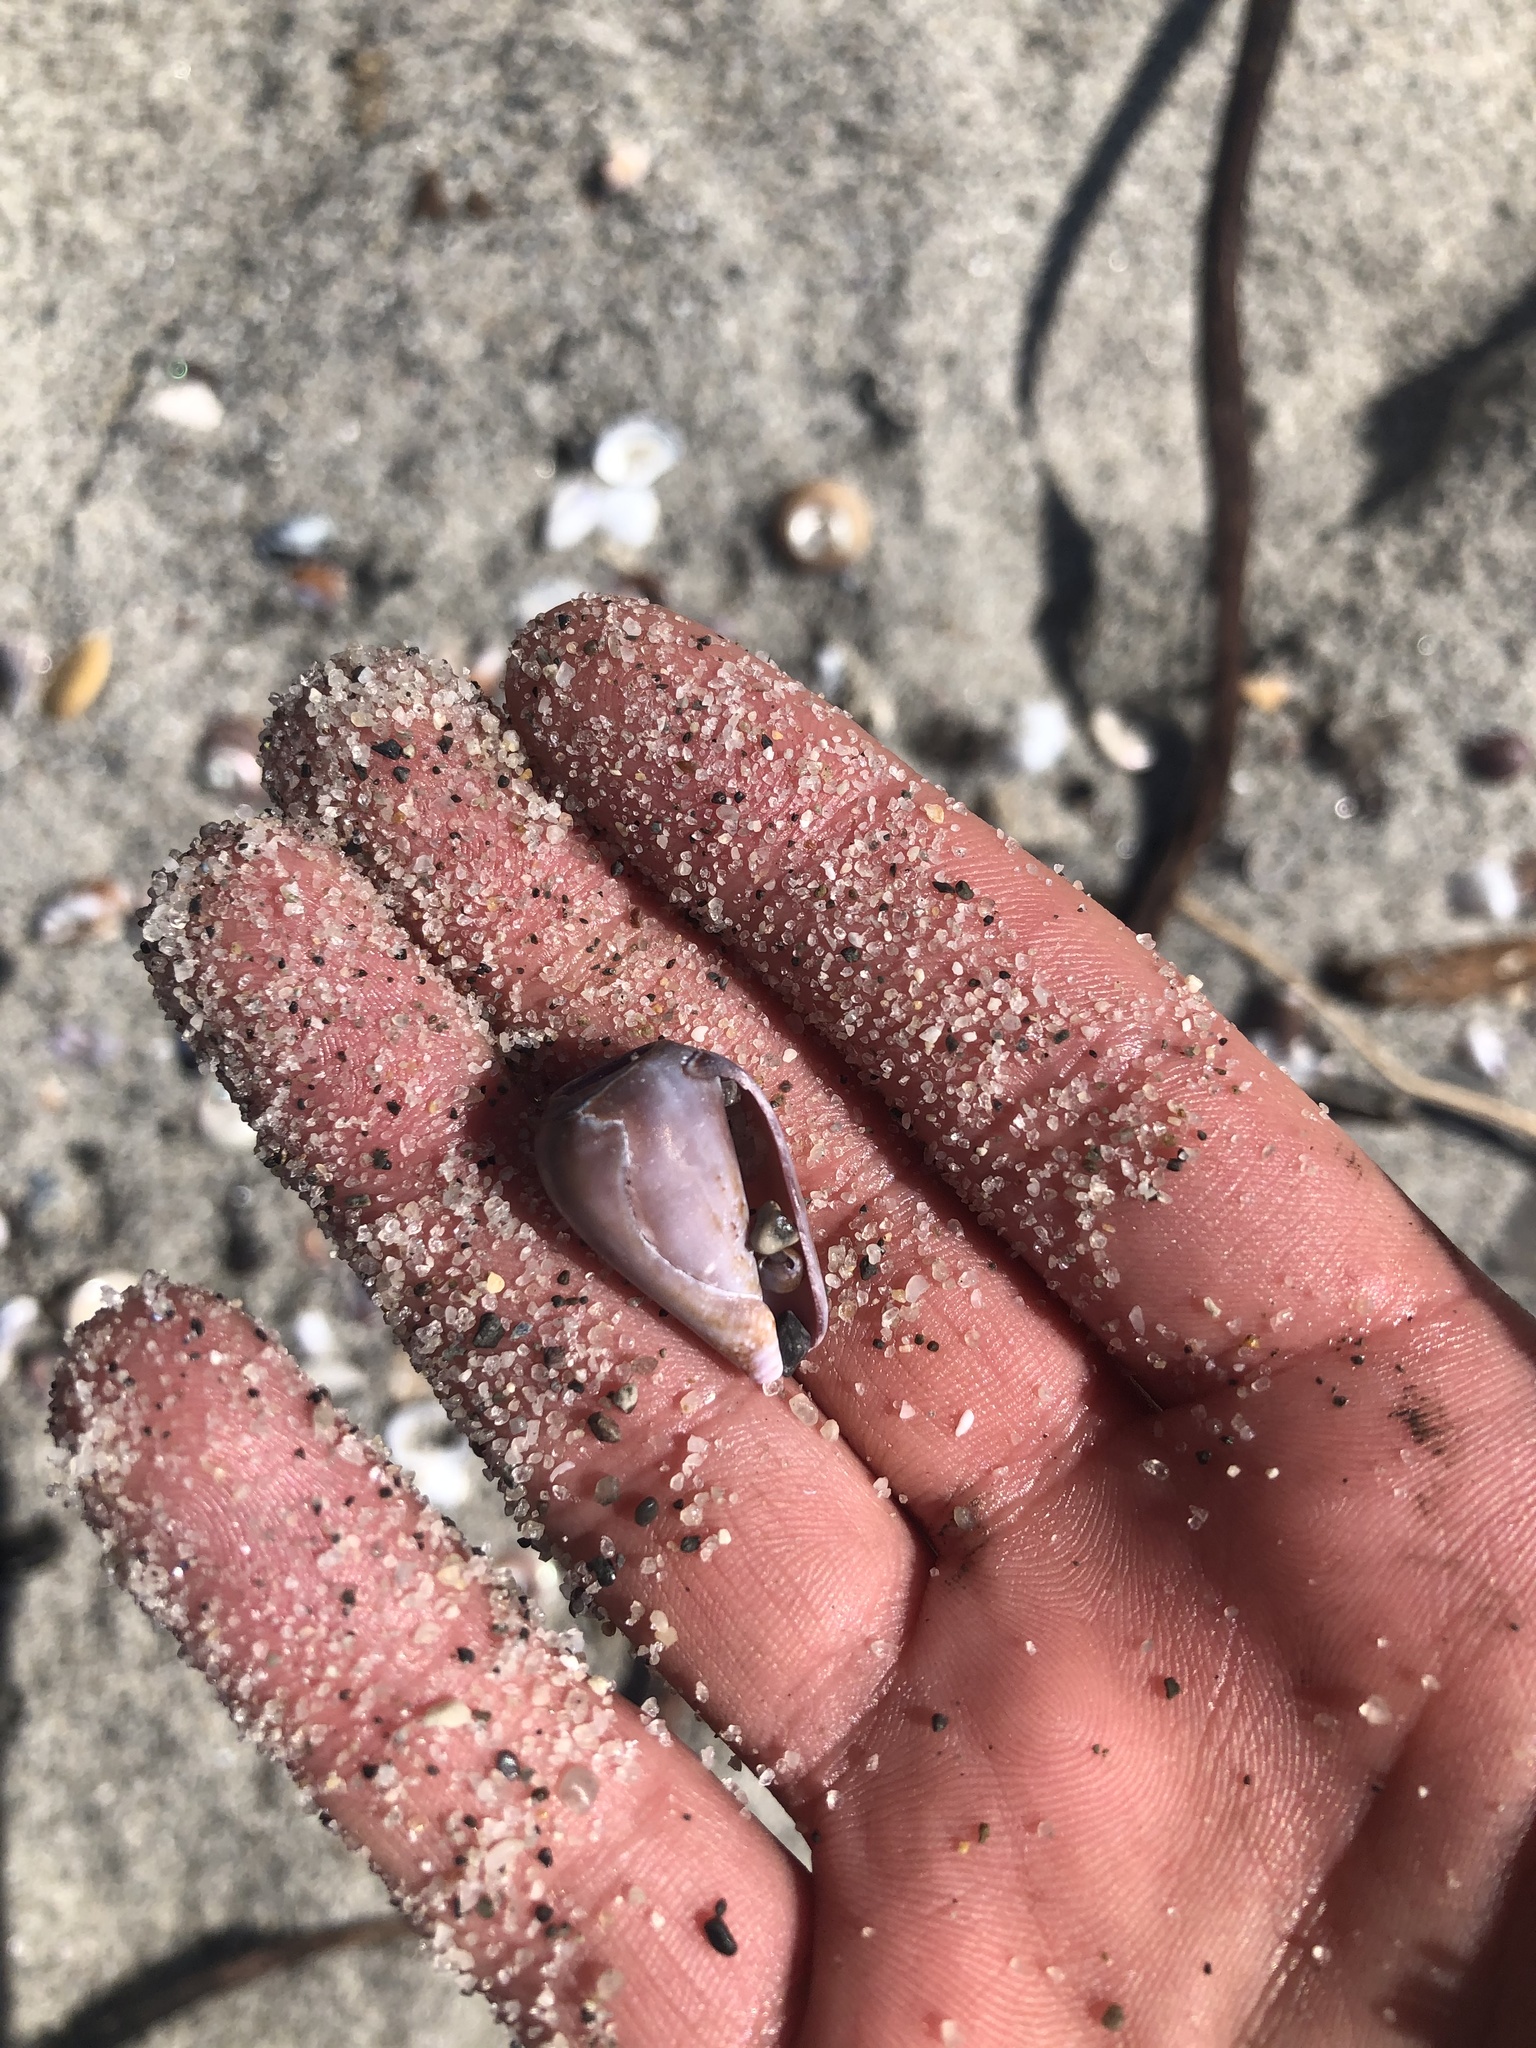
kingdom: Animalia
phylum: Mollusca
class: Gastropoda
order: Neogastropoda
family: Conidae
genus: Californiconus
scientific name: Californiconus californicus
